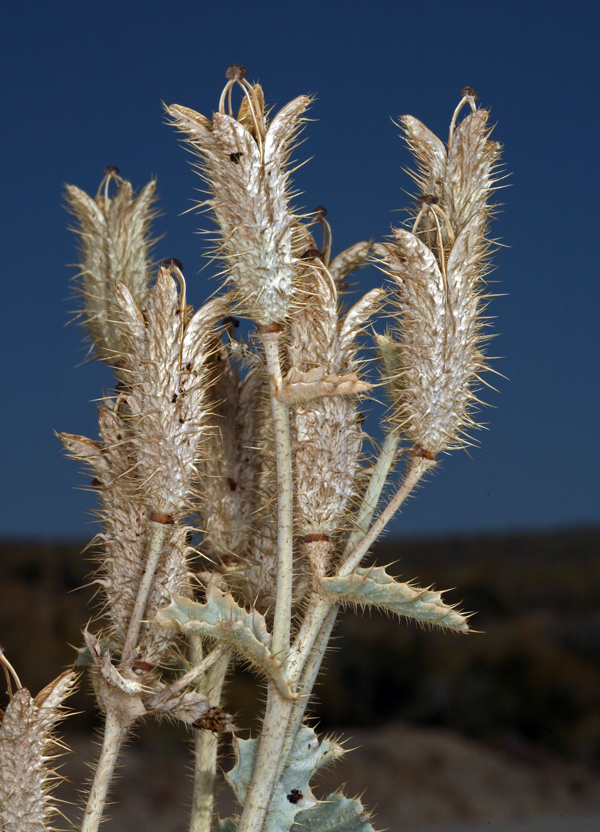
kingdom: Plantae
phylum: Tracheophyta
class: Magnoliopsida
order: Ranunculales
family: Papaveraceae
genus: Argemone
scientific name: Argemone munita
